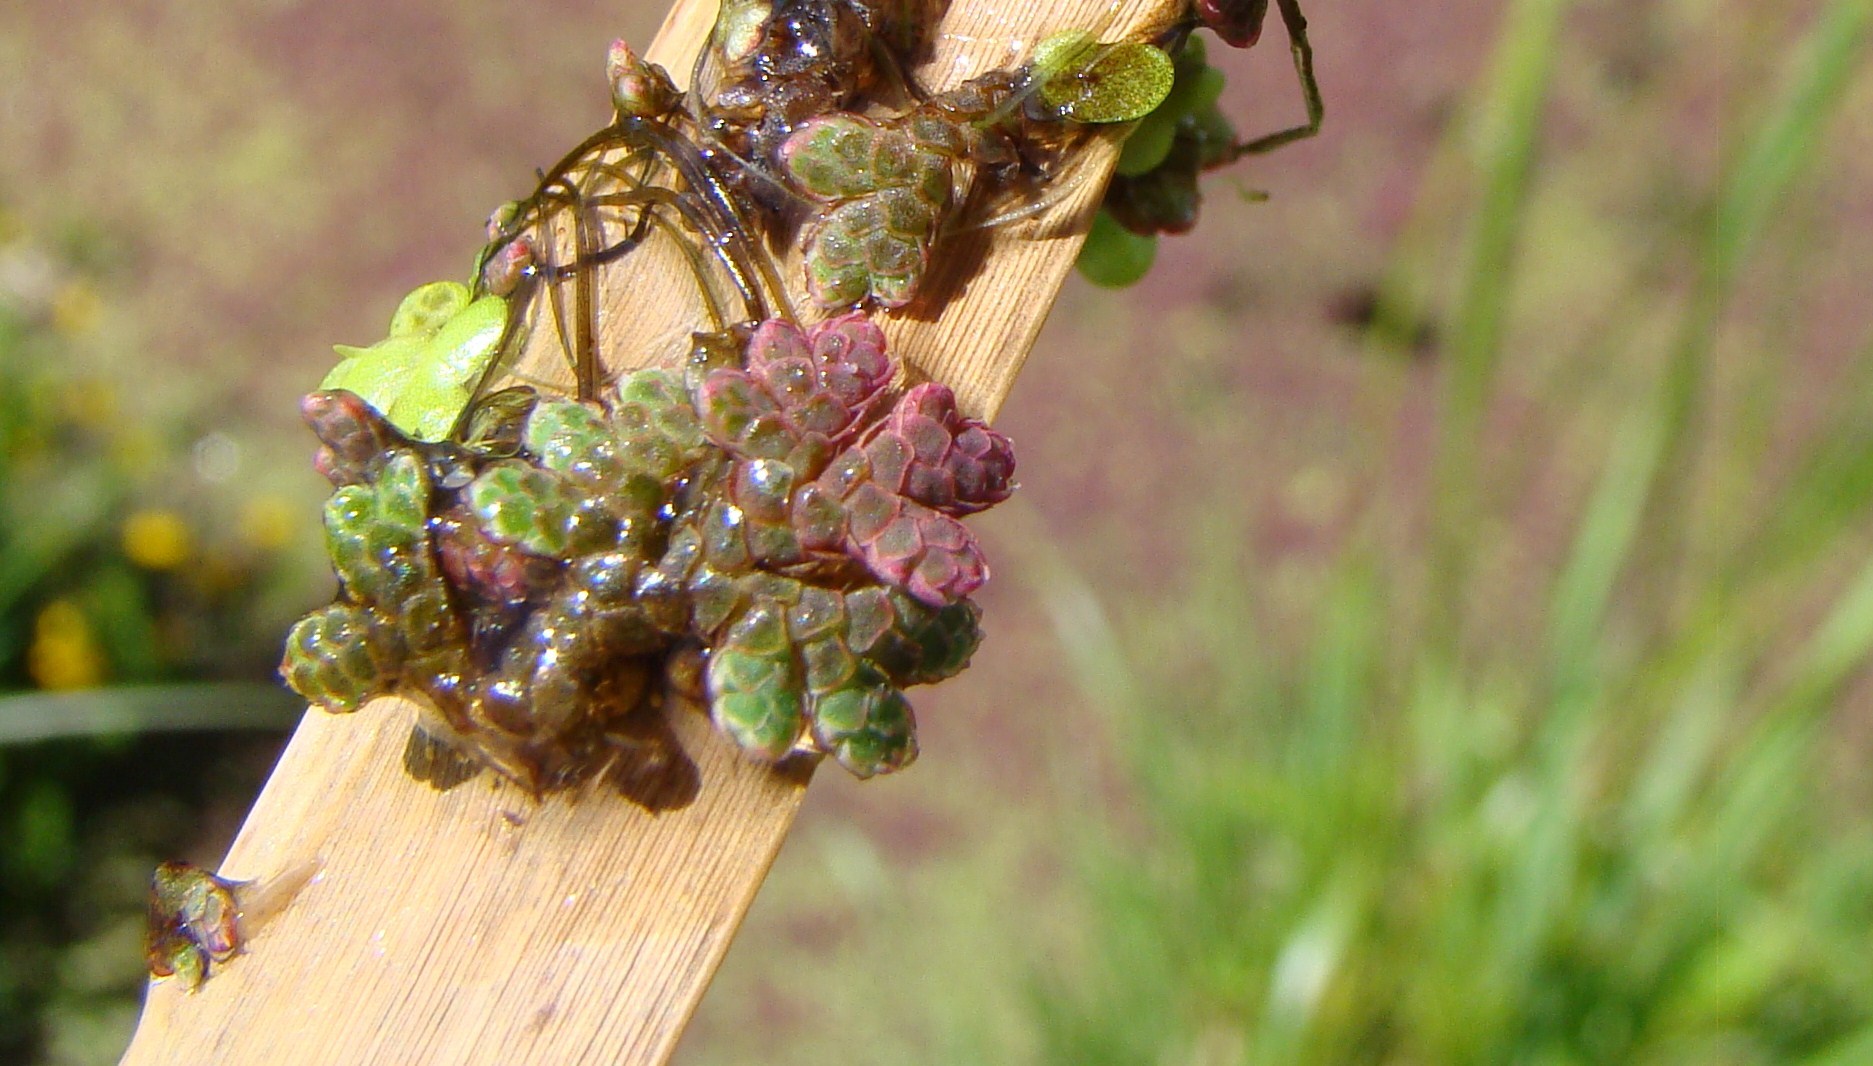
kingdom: Plantae
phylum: Tracheophyta
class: Polypodiopsida
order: Salviniales
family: Salviniaceae
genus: Azolla
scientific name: Azolla rubra
